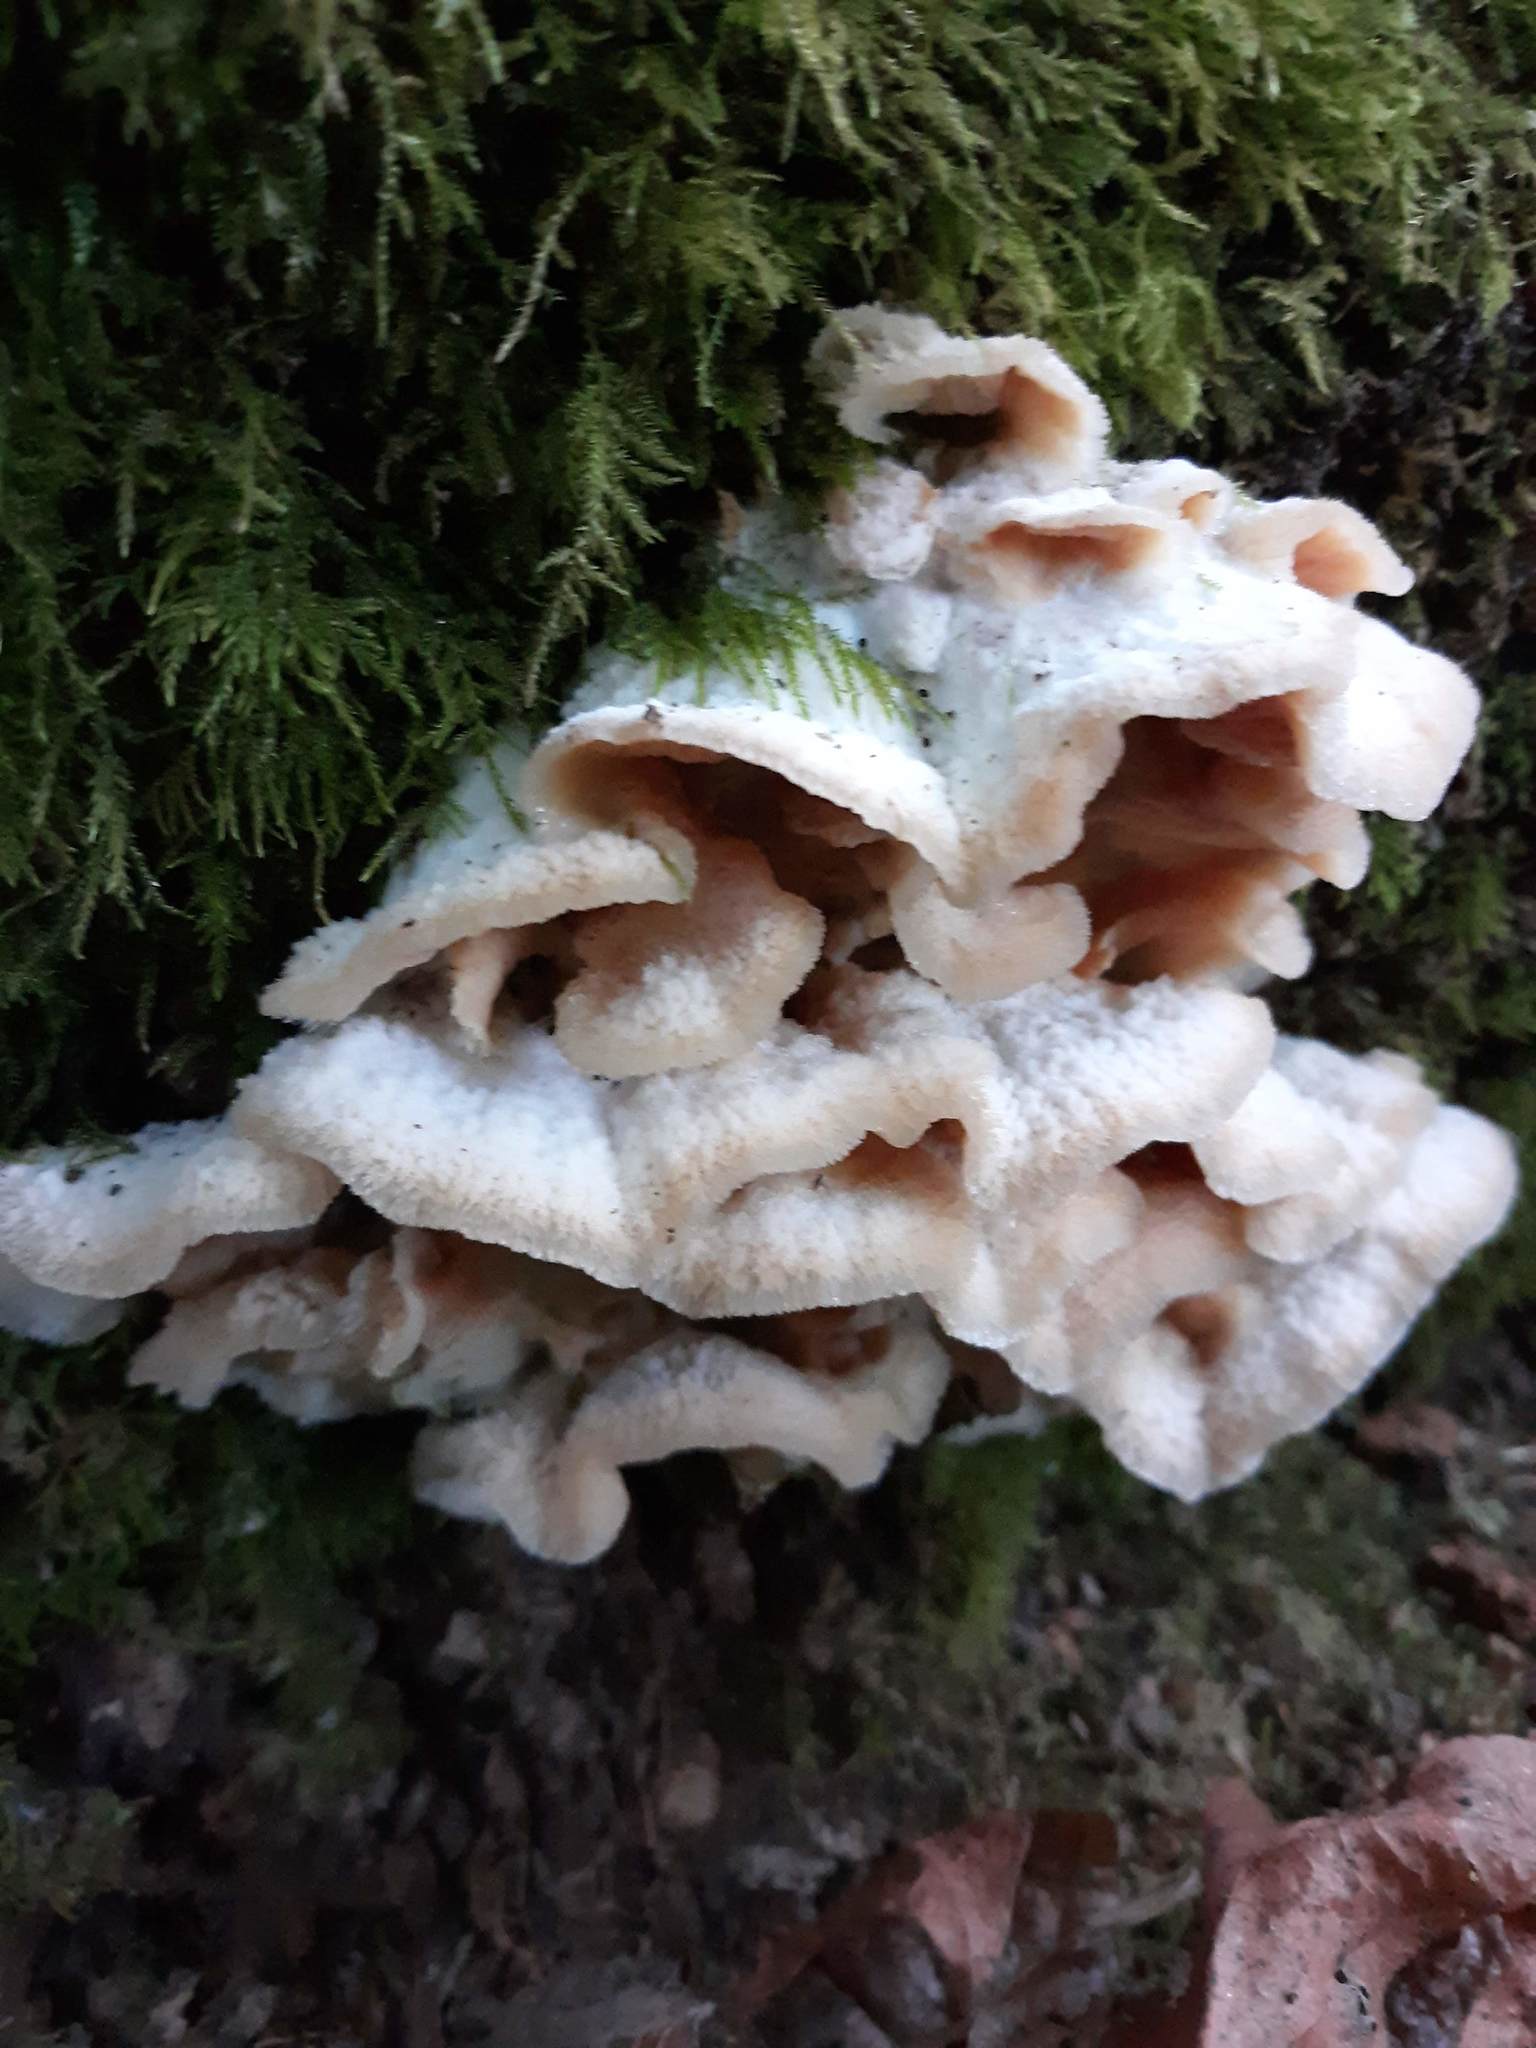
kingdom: Fungi
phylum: Basidiomycota
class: Agaricomycetes
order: Polyporales
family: Meruliaceae
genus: Phlebia
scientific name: Phlebia tremellosa
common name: Jelly rot
